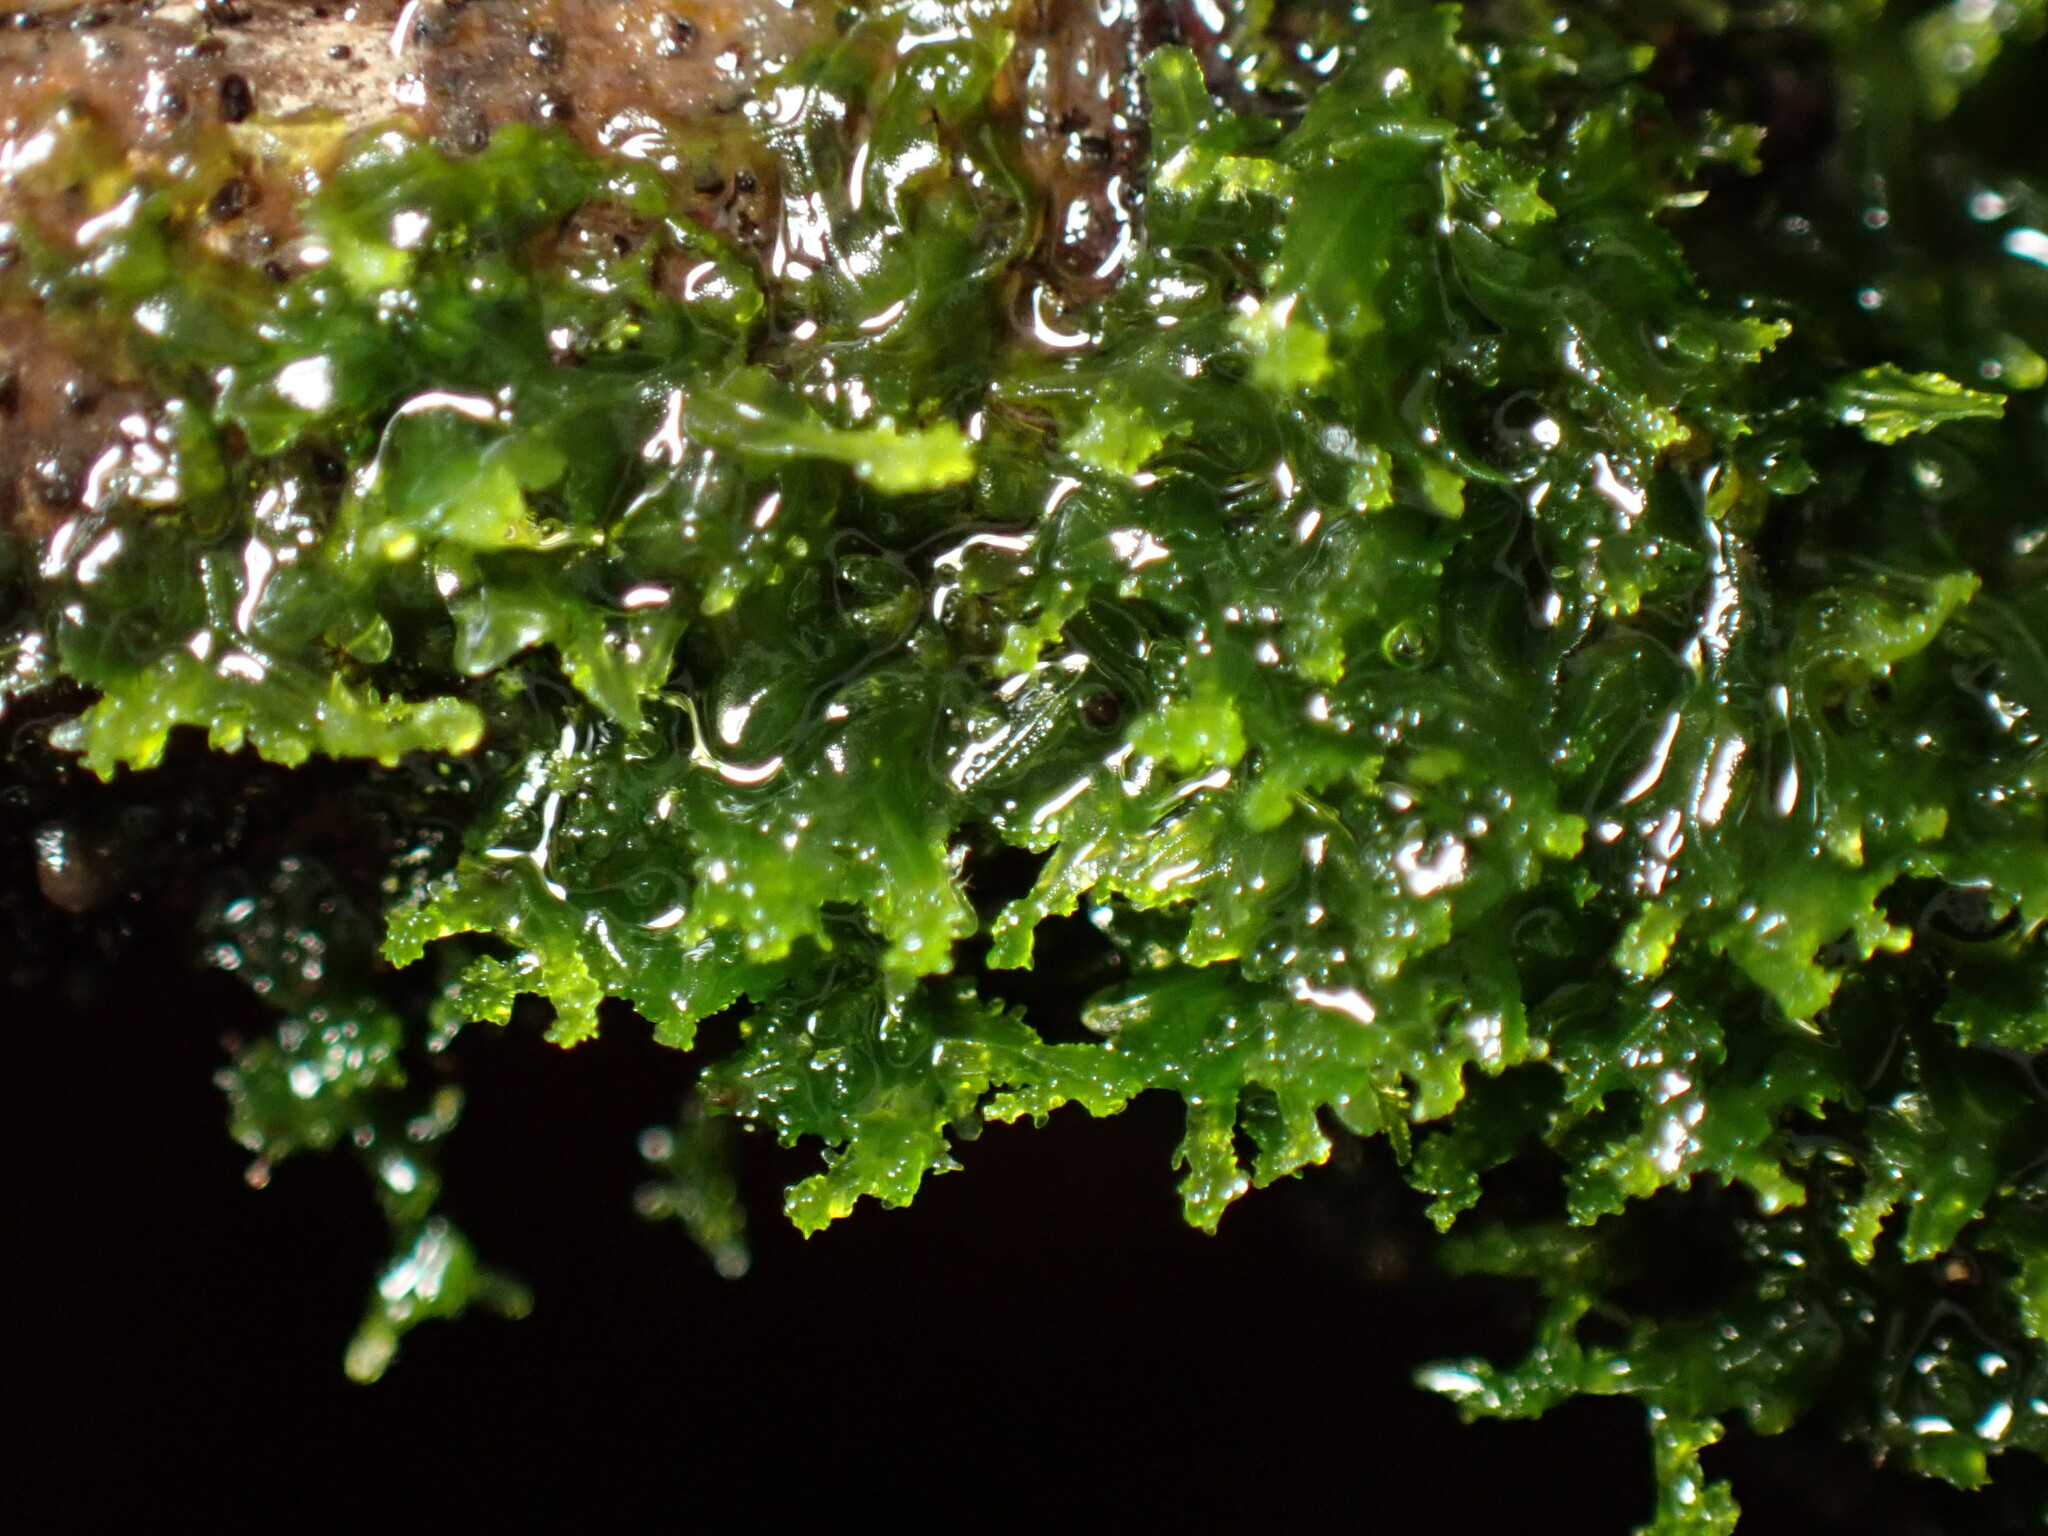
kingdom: Plantae
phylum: Marchantiophyta
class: Jungermanniopsida
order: Metzgeriales
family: Metzgeriaceae
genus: Metzgeria
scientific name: Metzgeria consanguinea
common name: Whiskered veilwort
